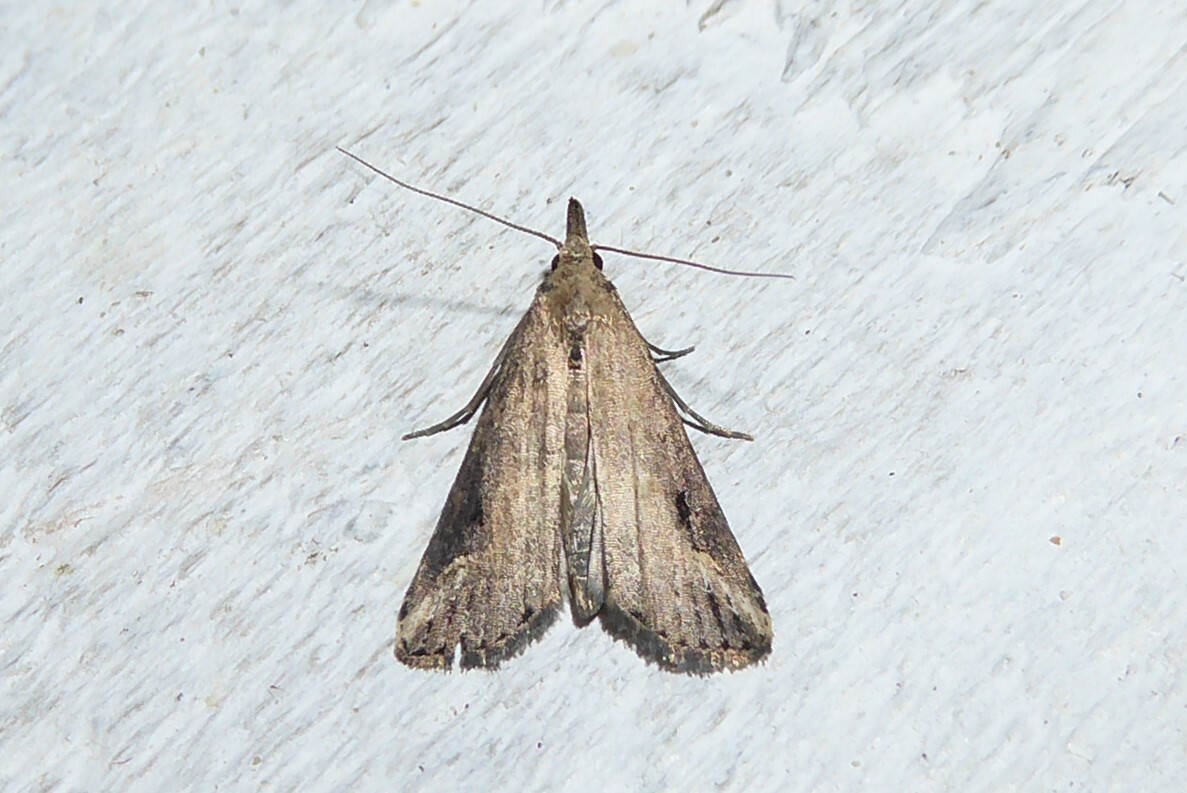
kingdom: Animalia
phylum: Arthropoda
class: Insecta
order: Lepidoptera
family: Erebidae
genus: Schrankia
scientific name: Schrankia costaestrigalis
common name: Pinion-streaked snout
